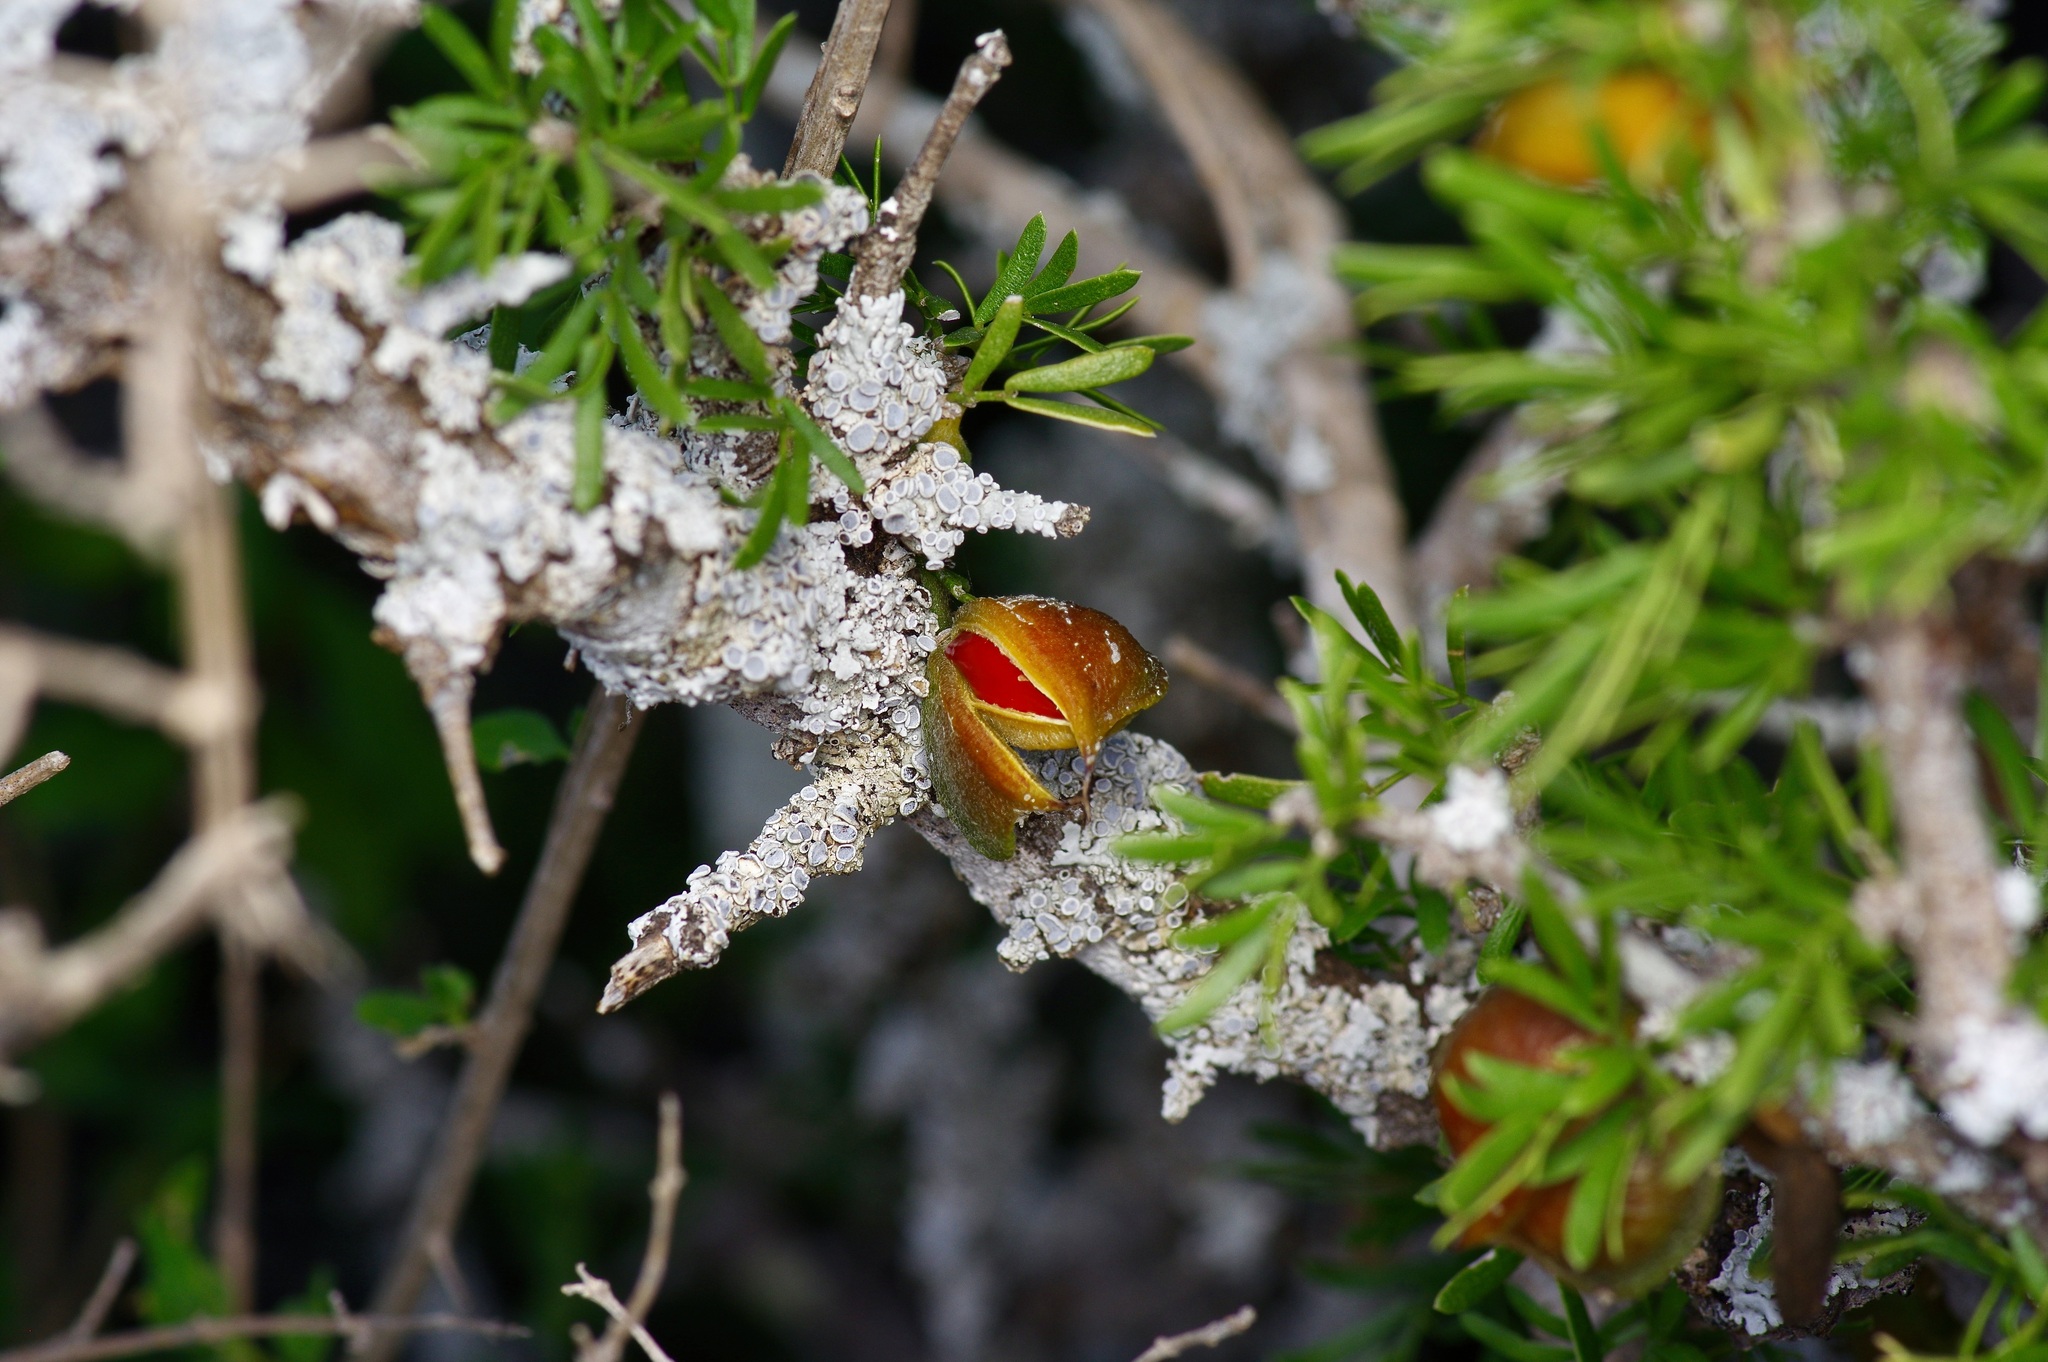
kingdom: Plantae
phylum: Tracheophyta
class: Magnoliopsida
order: Zygophyllales
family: Zygophyllaceae
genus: Porlieria
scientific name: Porlieria angustifolia
